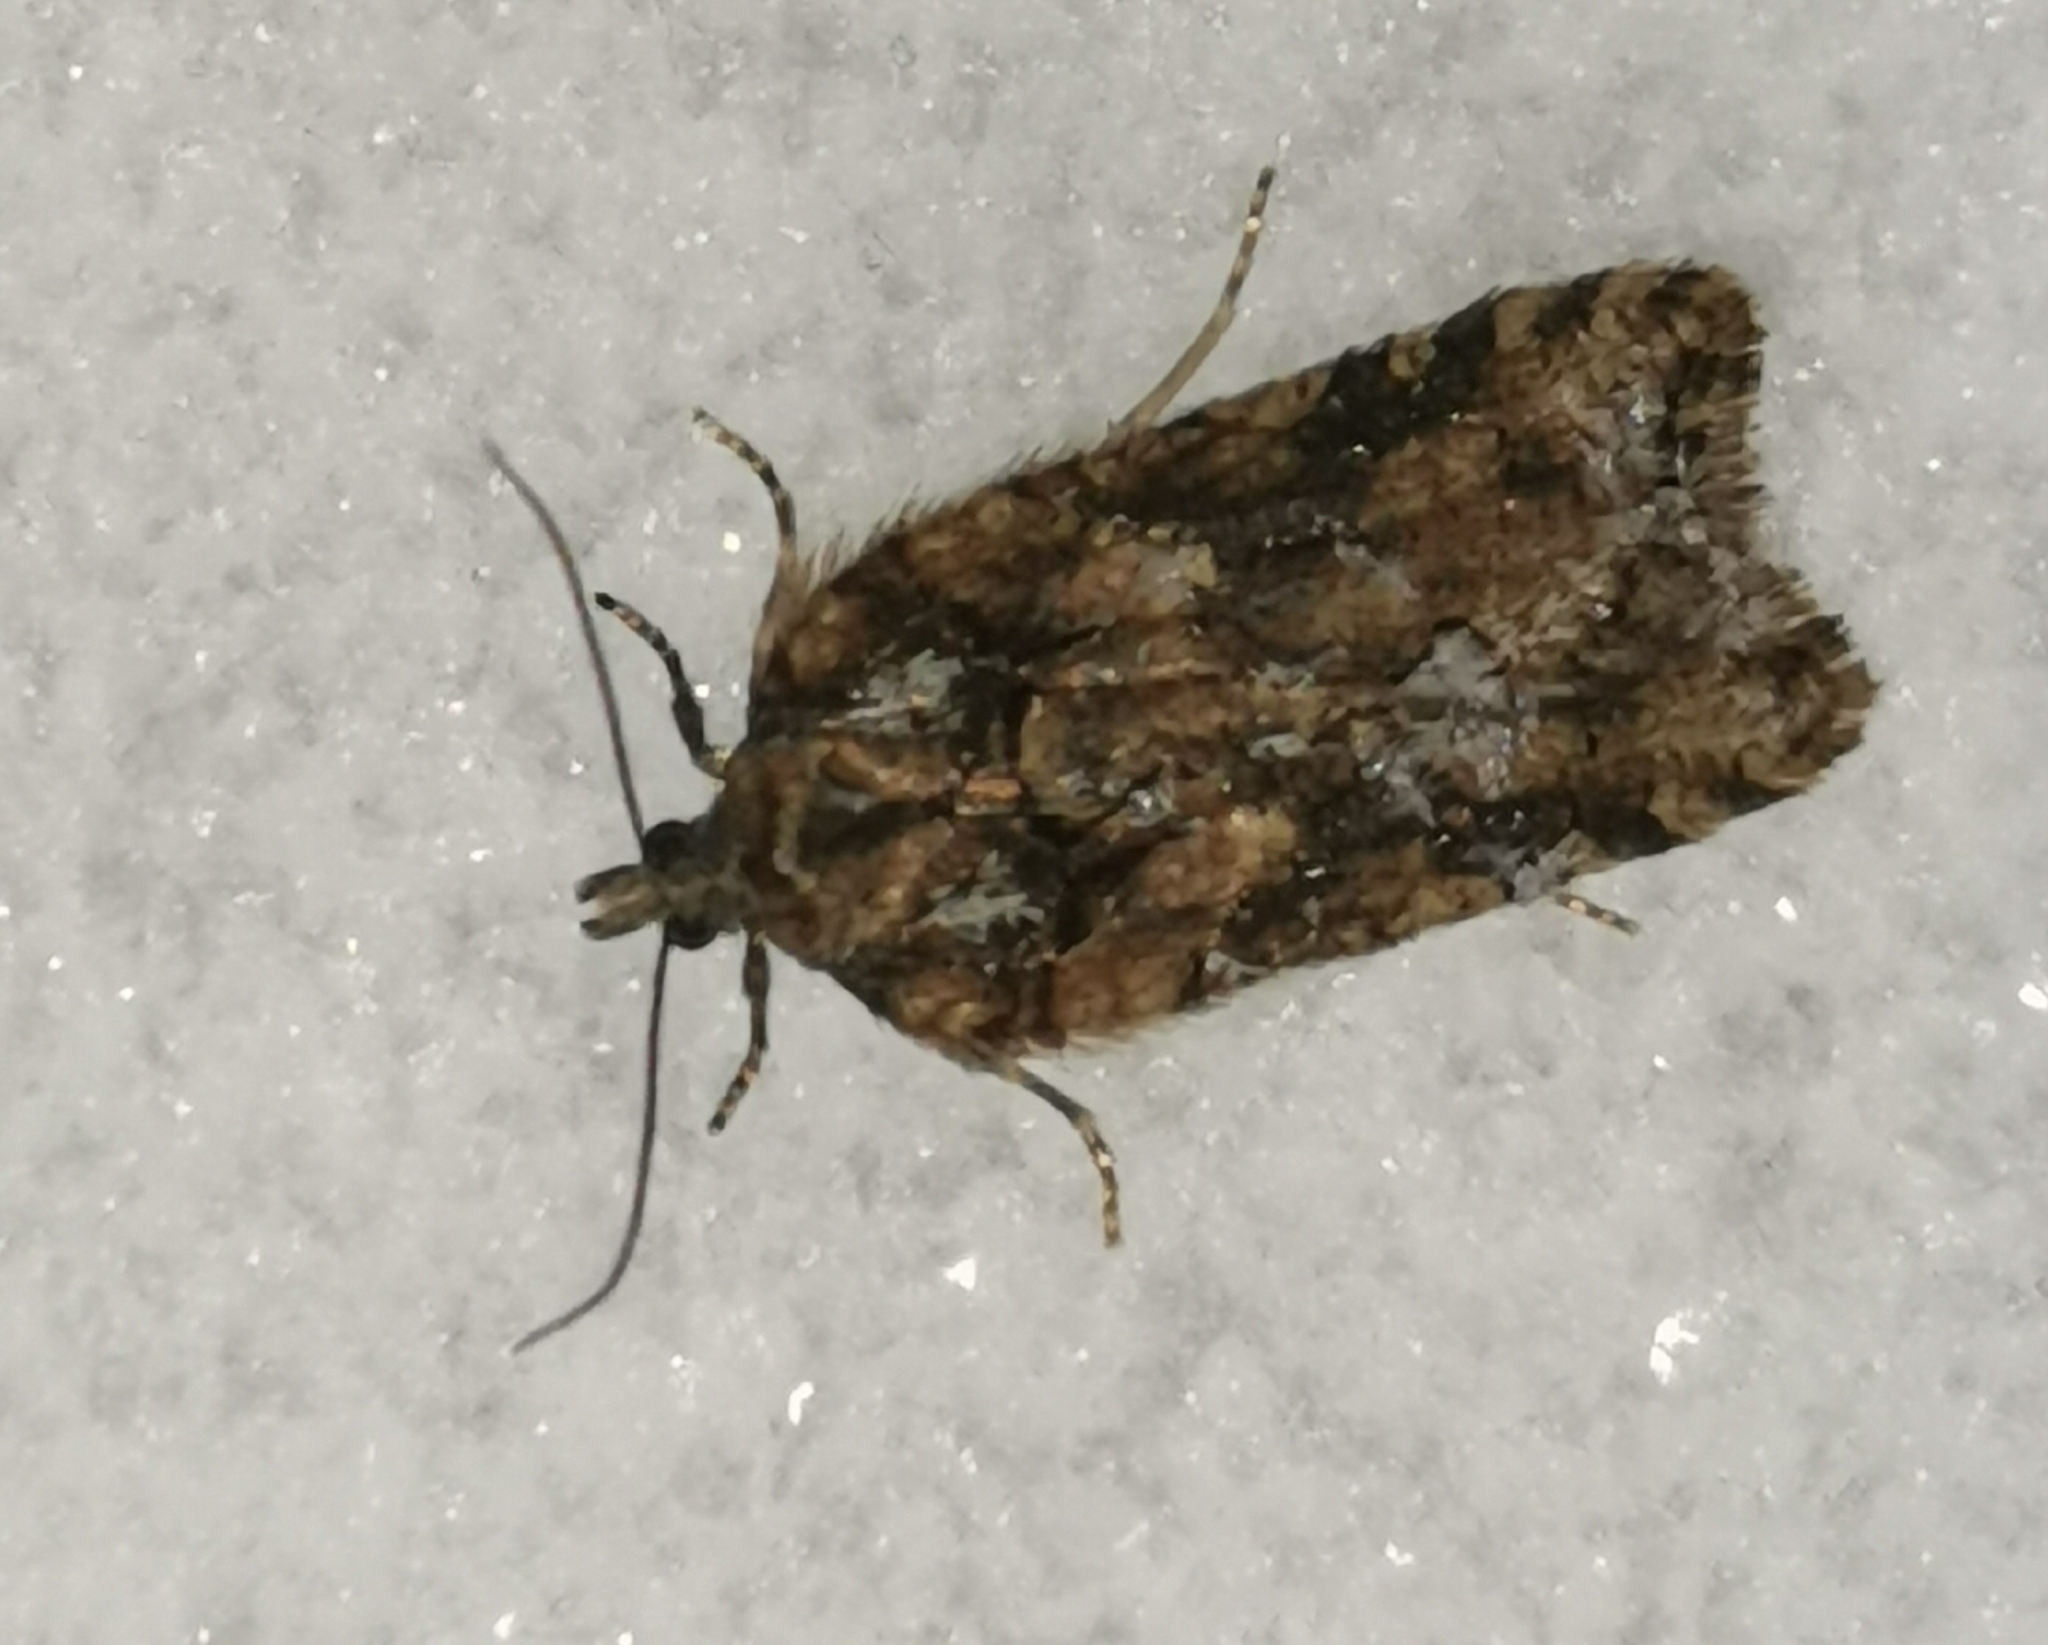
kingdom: Animalia
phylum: Arthropoda
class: Insecta
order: Lepidoptera
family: Nolidae
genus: Nycteola
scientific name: Nycteola degenerana
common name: Swallow nycteoline
